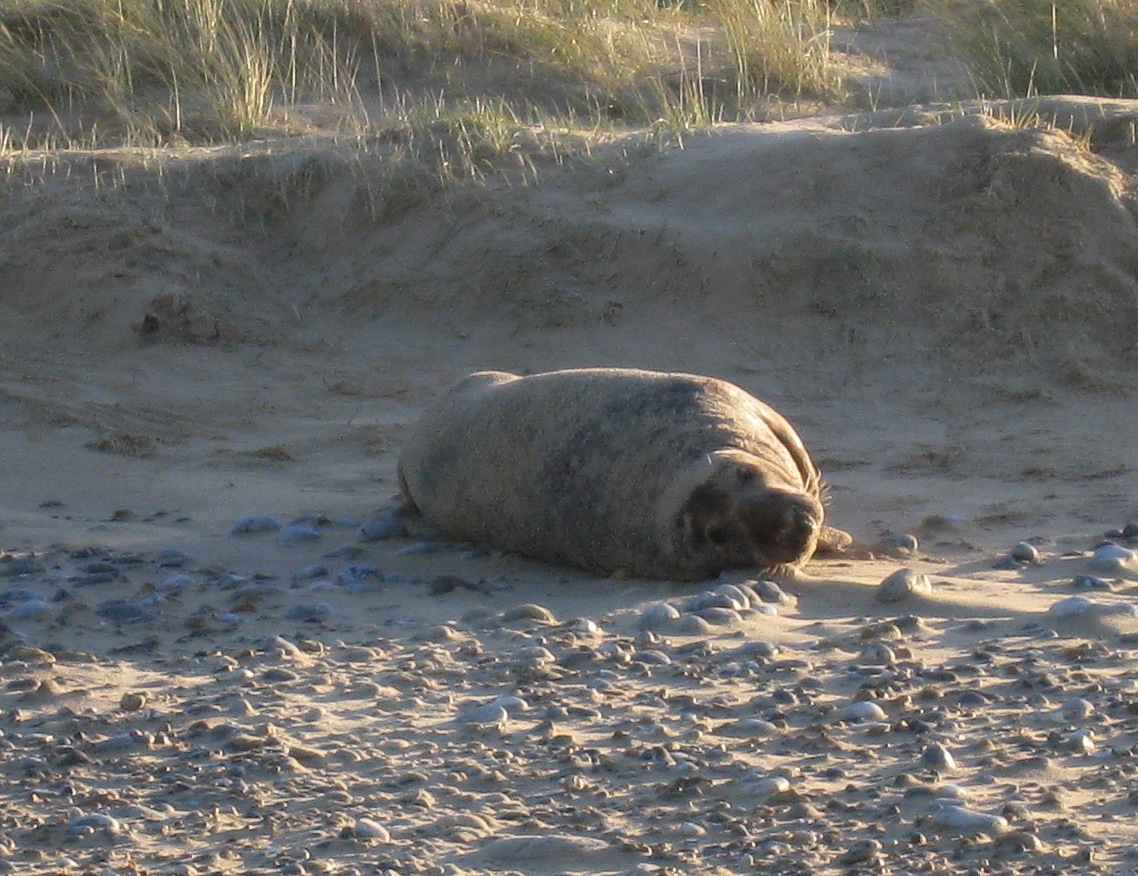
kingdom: Animalia
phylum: Chordata
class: Mammalia
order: Carnivora
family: Phocidae
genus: Halichoerus
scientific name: Halichoerus grypus
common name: Grey seal
